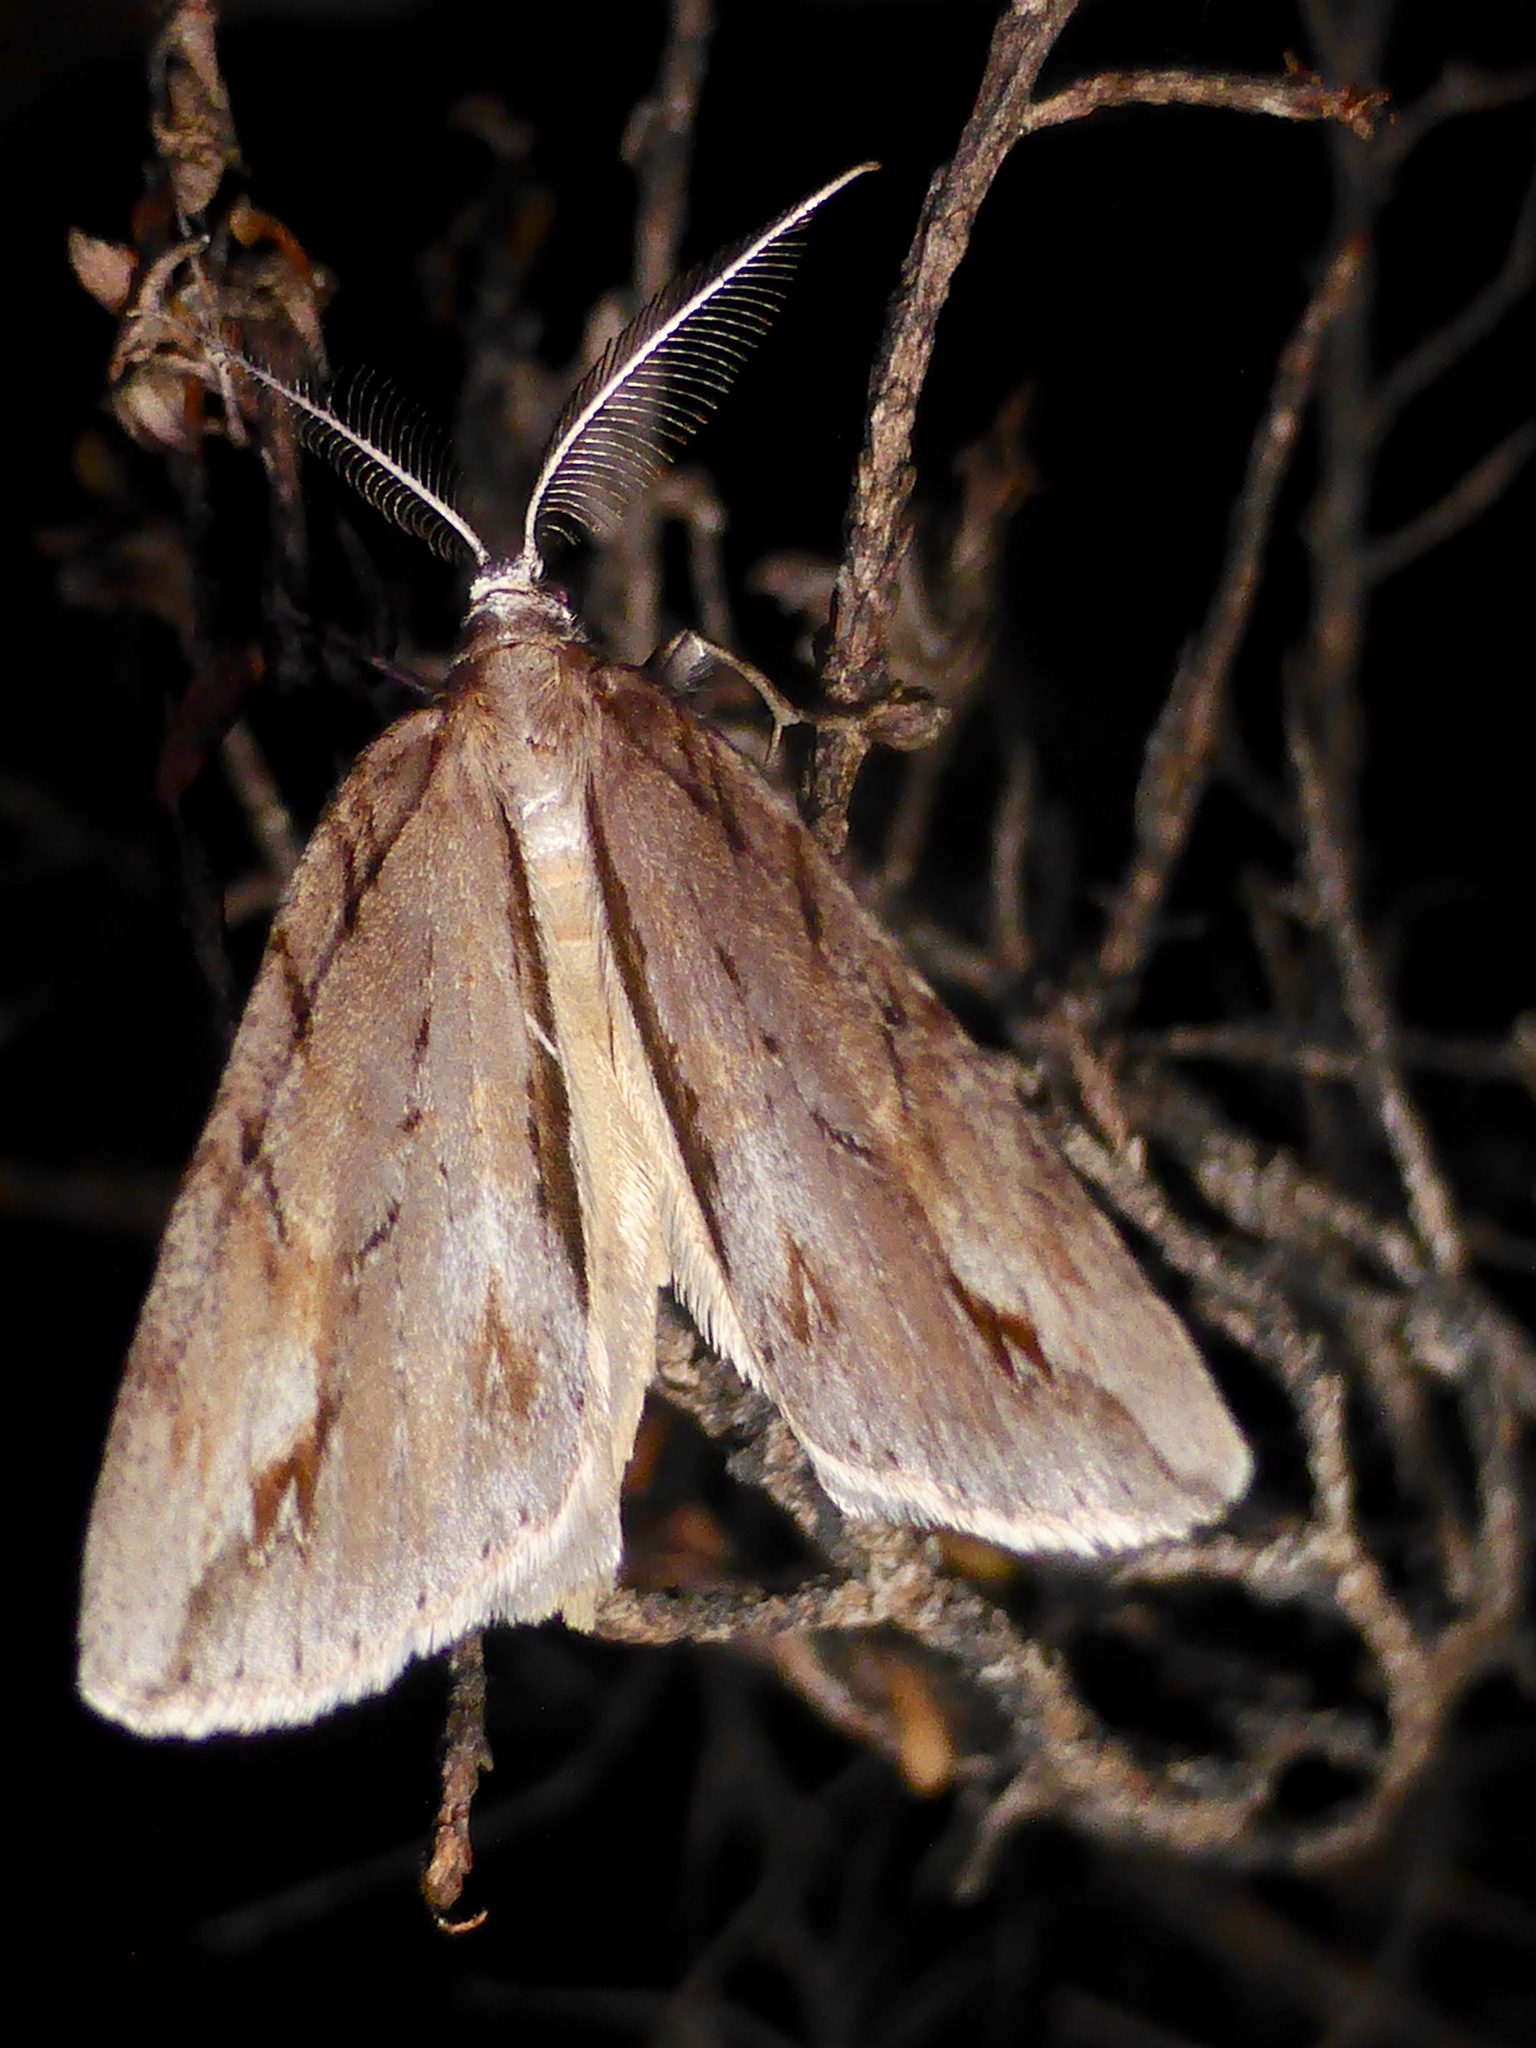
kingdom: Animalia
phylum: Arthropoda
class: Insecta
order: Lepidoptera
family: Geometridae
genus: Pseudocoremia
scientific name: Pseudocoremia lupinata
